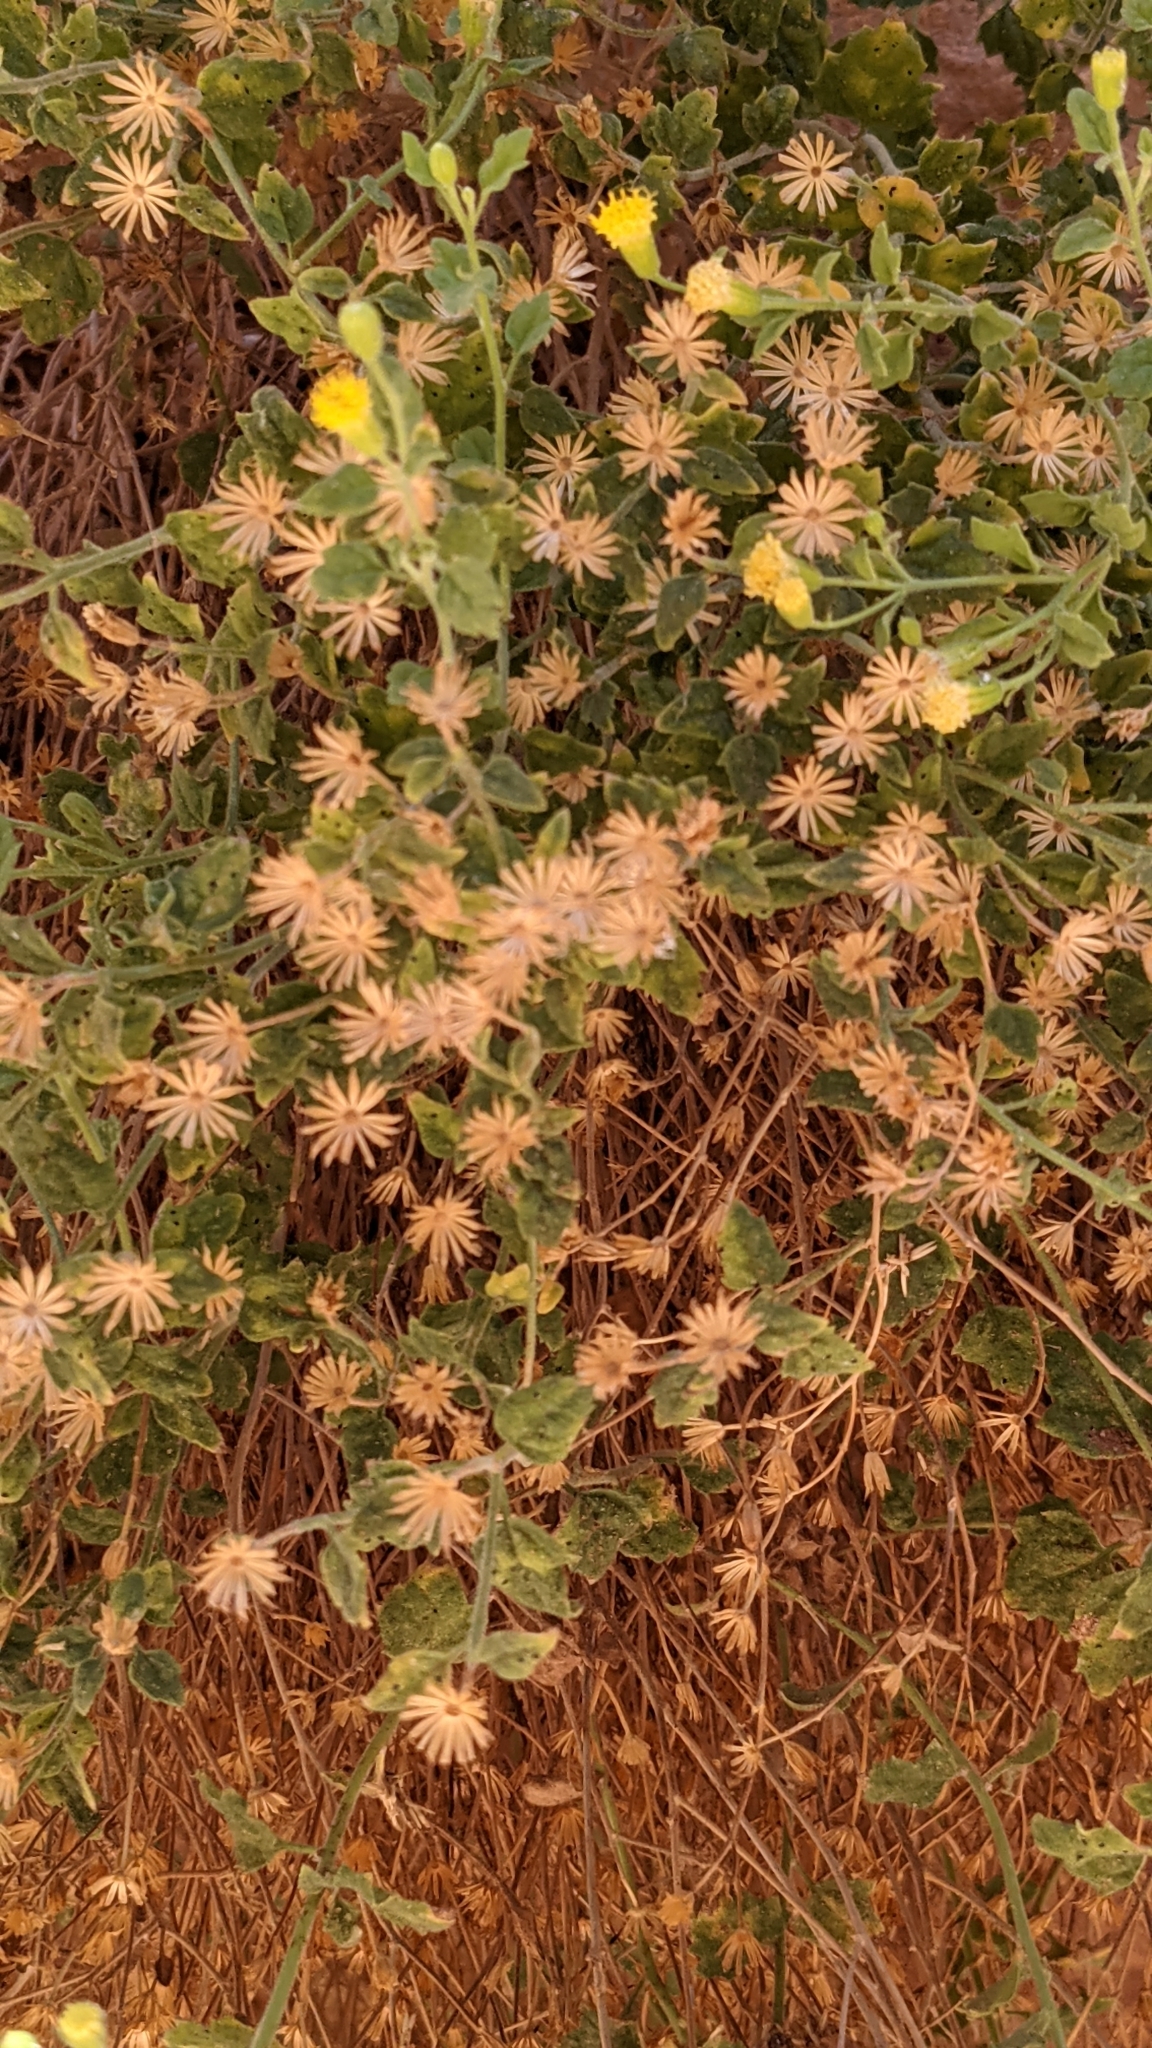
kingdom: Plantae
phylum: Tracheophyta
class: Magnoliopsida
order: Asterales
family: Asteraceae
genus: Laphamia
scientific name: Laphamia sanchezii
